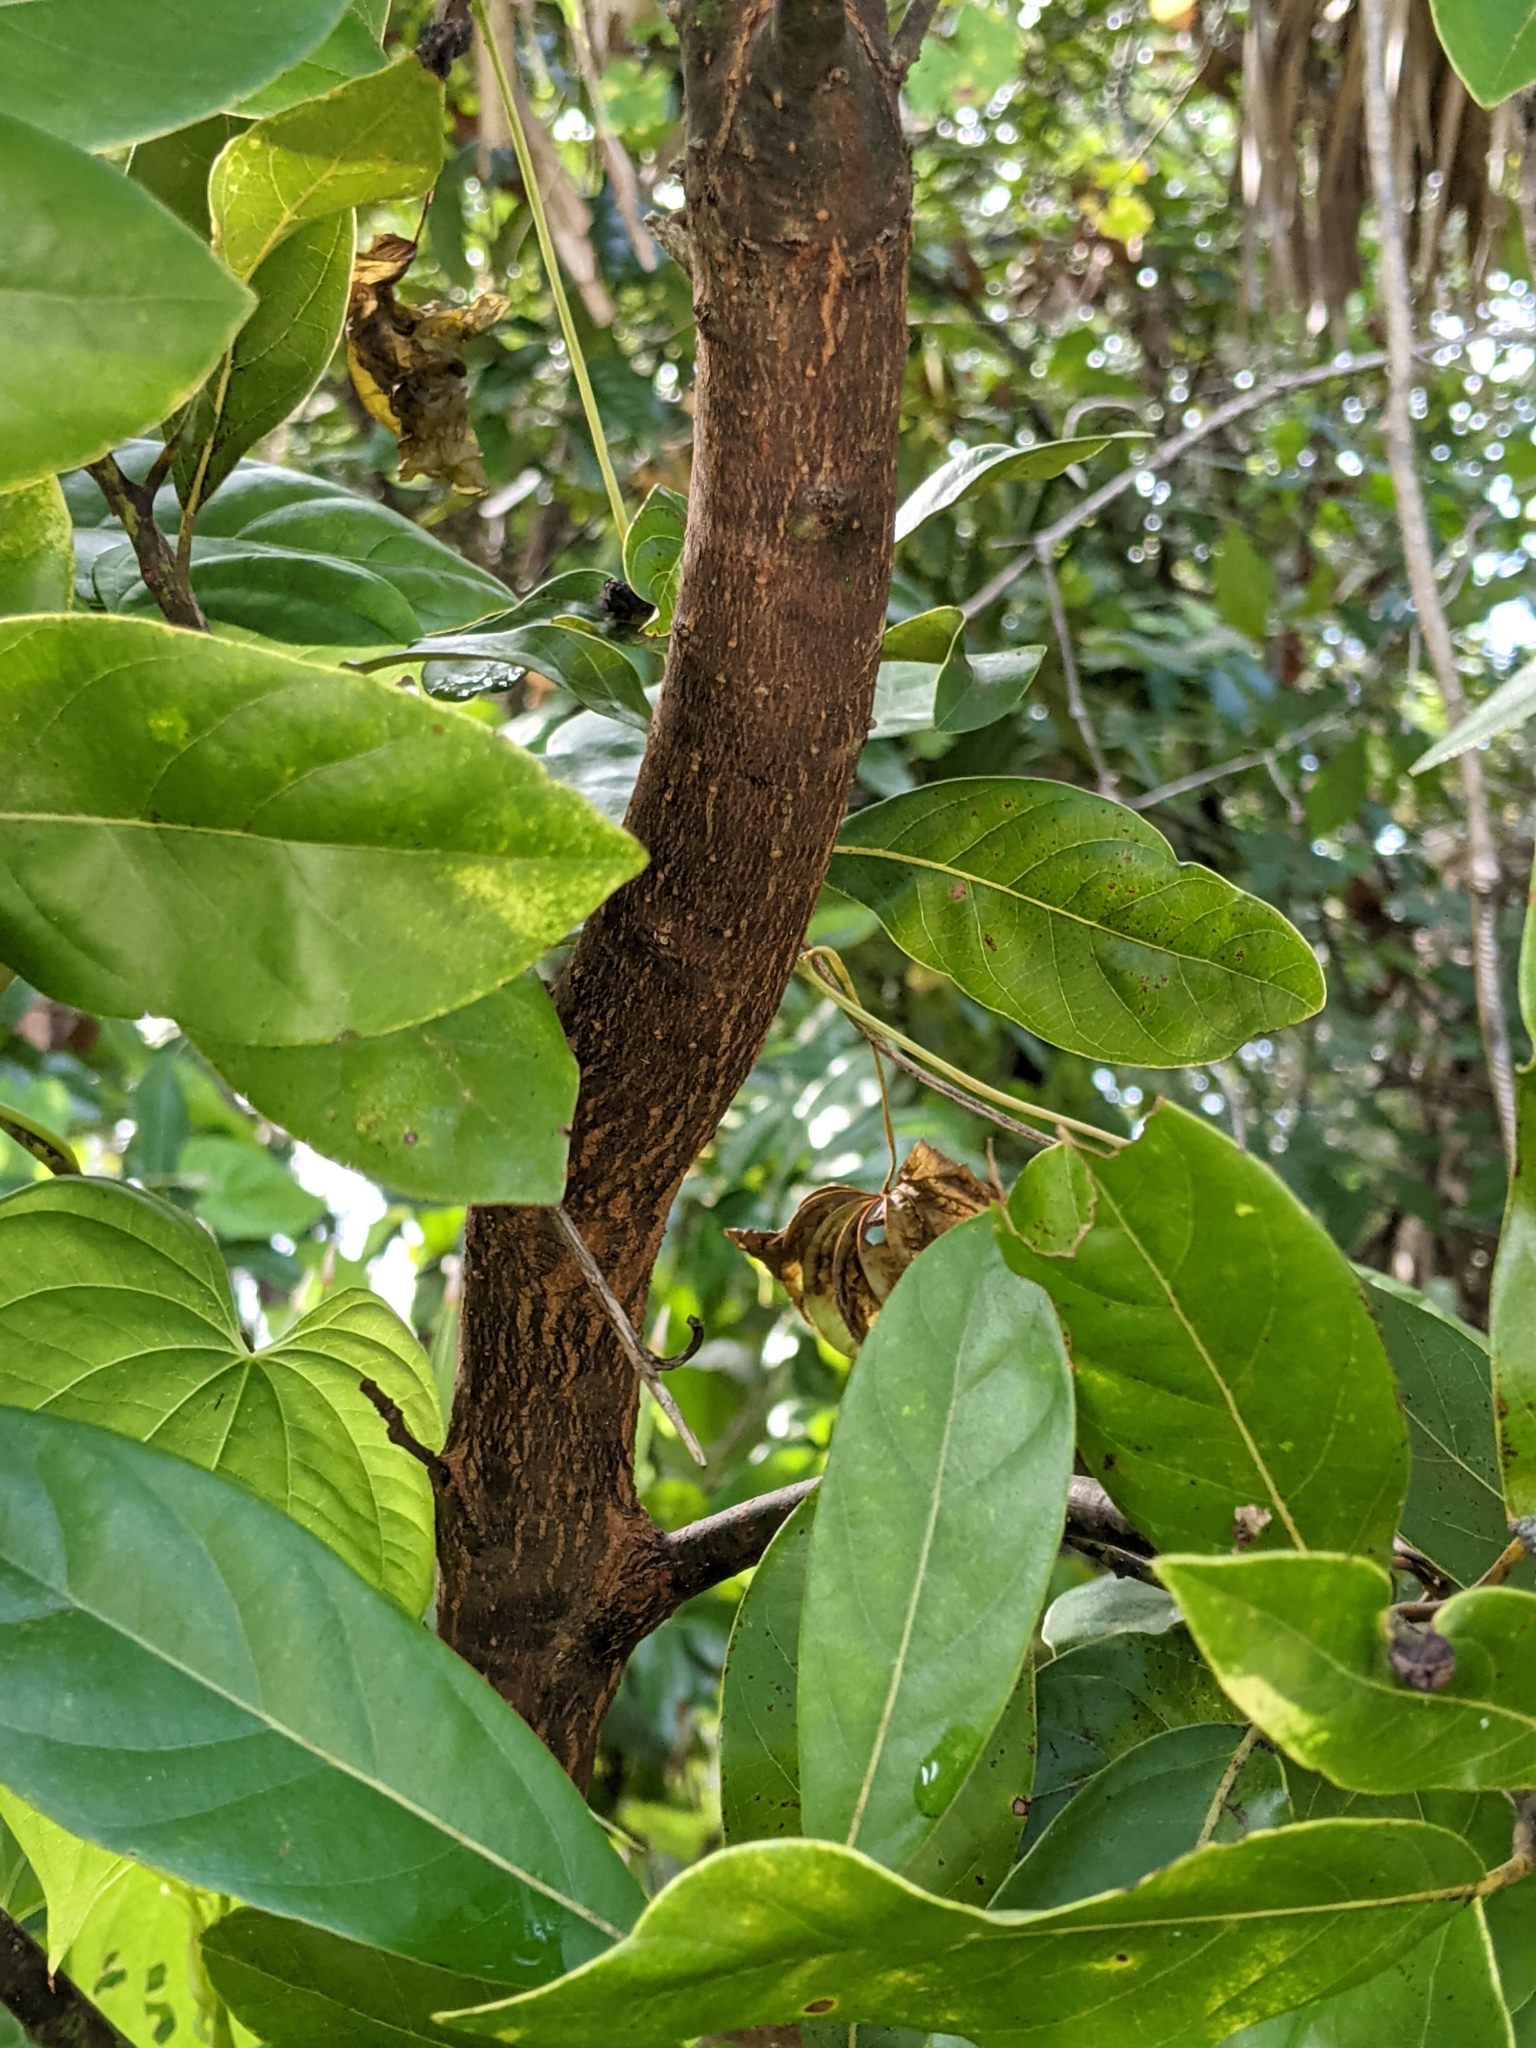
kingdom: Plantae
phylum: Tracheophyta
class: Magnoliopsida
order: Laurales
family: Lauraceae
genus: Persea
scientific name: Persea borbonia
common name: Redbay
